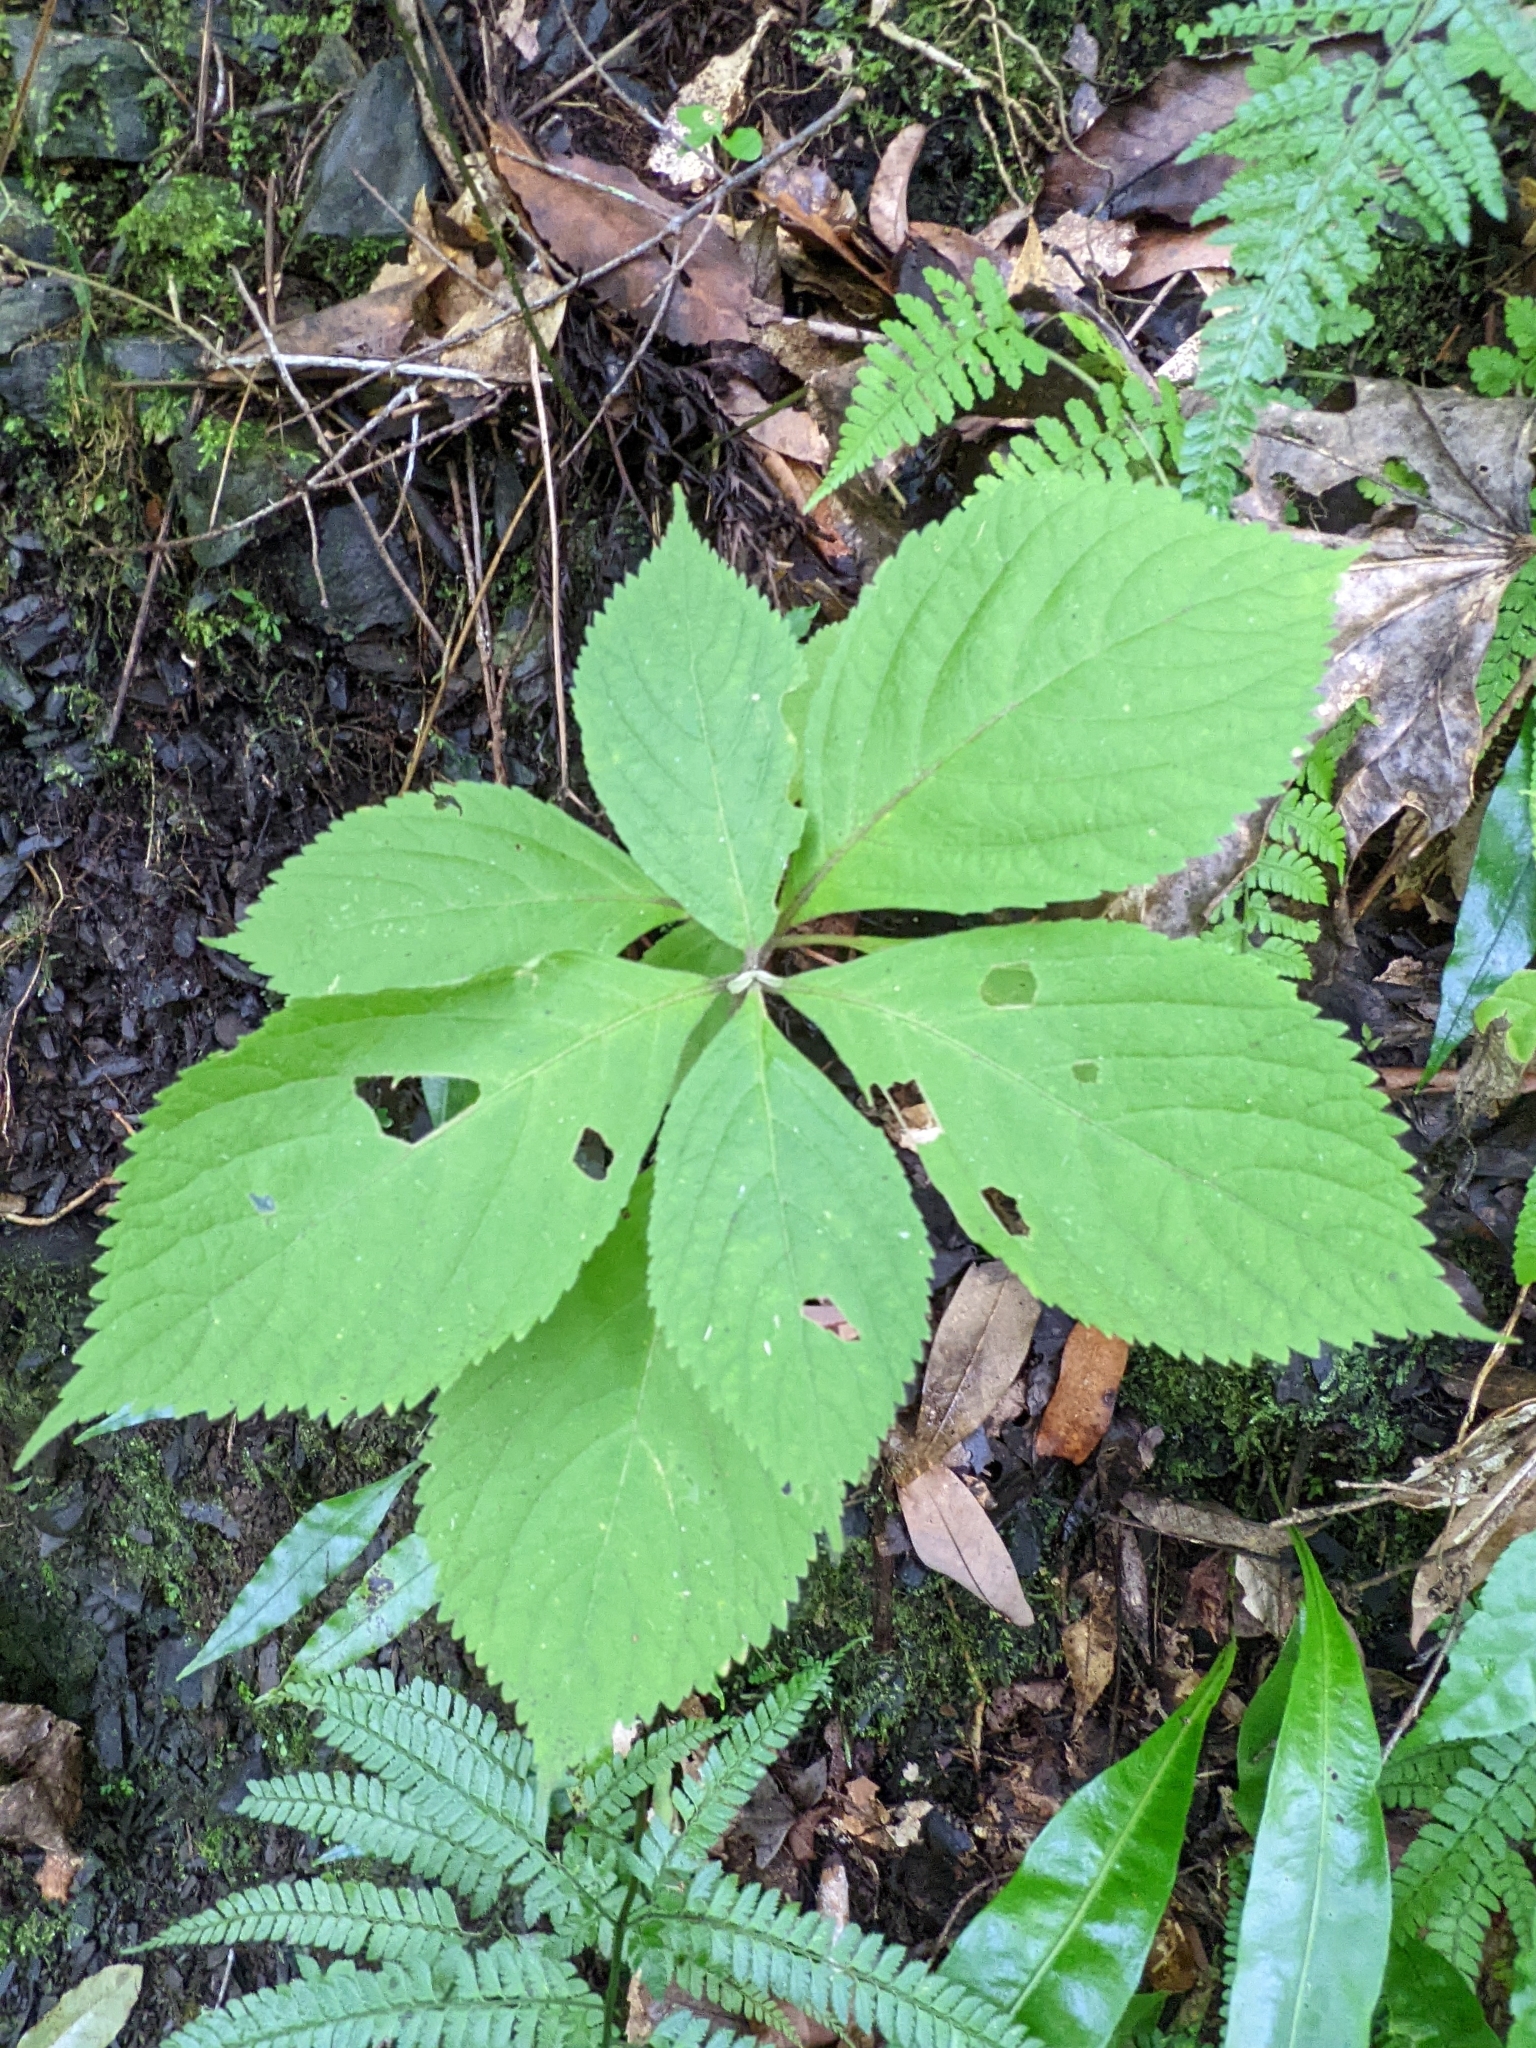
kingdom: Plantae
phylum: Tracheophyta
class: Magnoliopsida
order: Lamiales
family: Lamiaceae
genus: Comanthosphace
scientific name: Comanthosphace formosana
